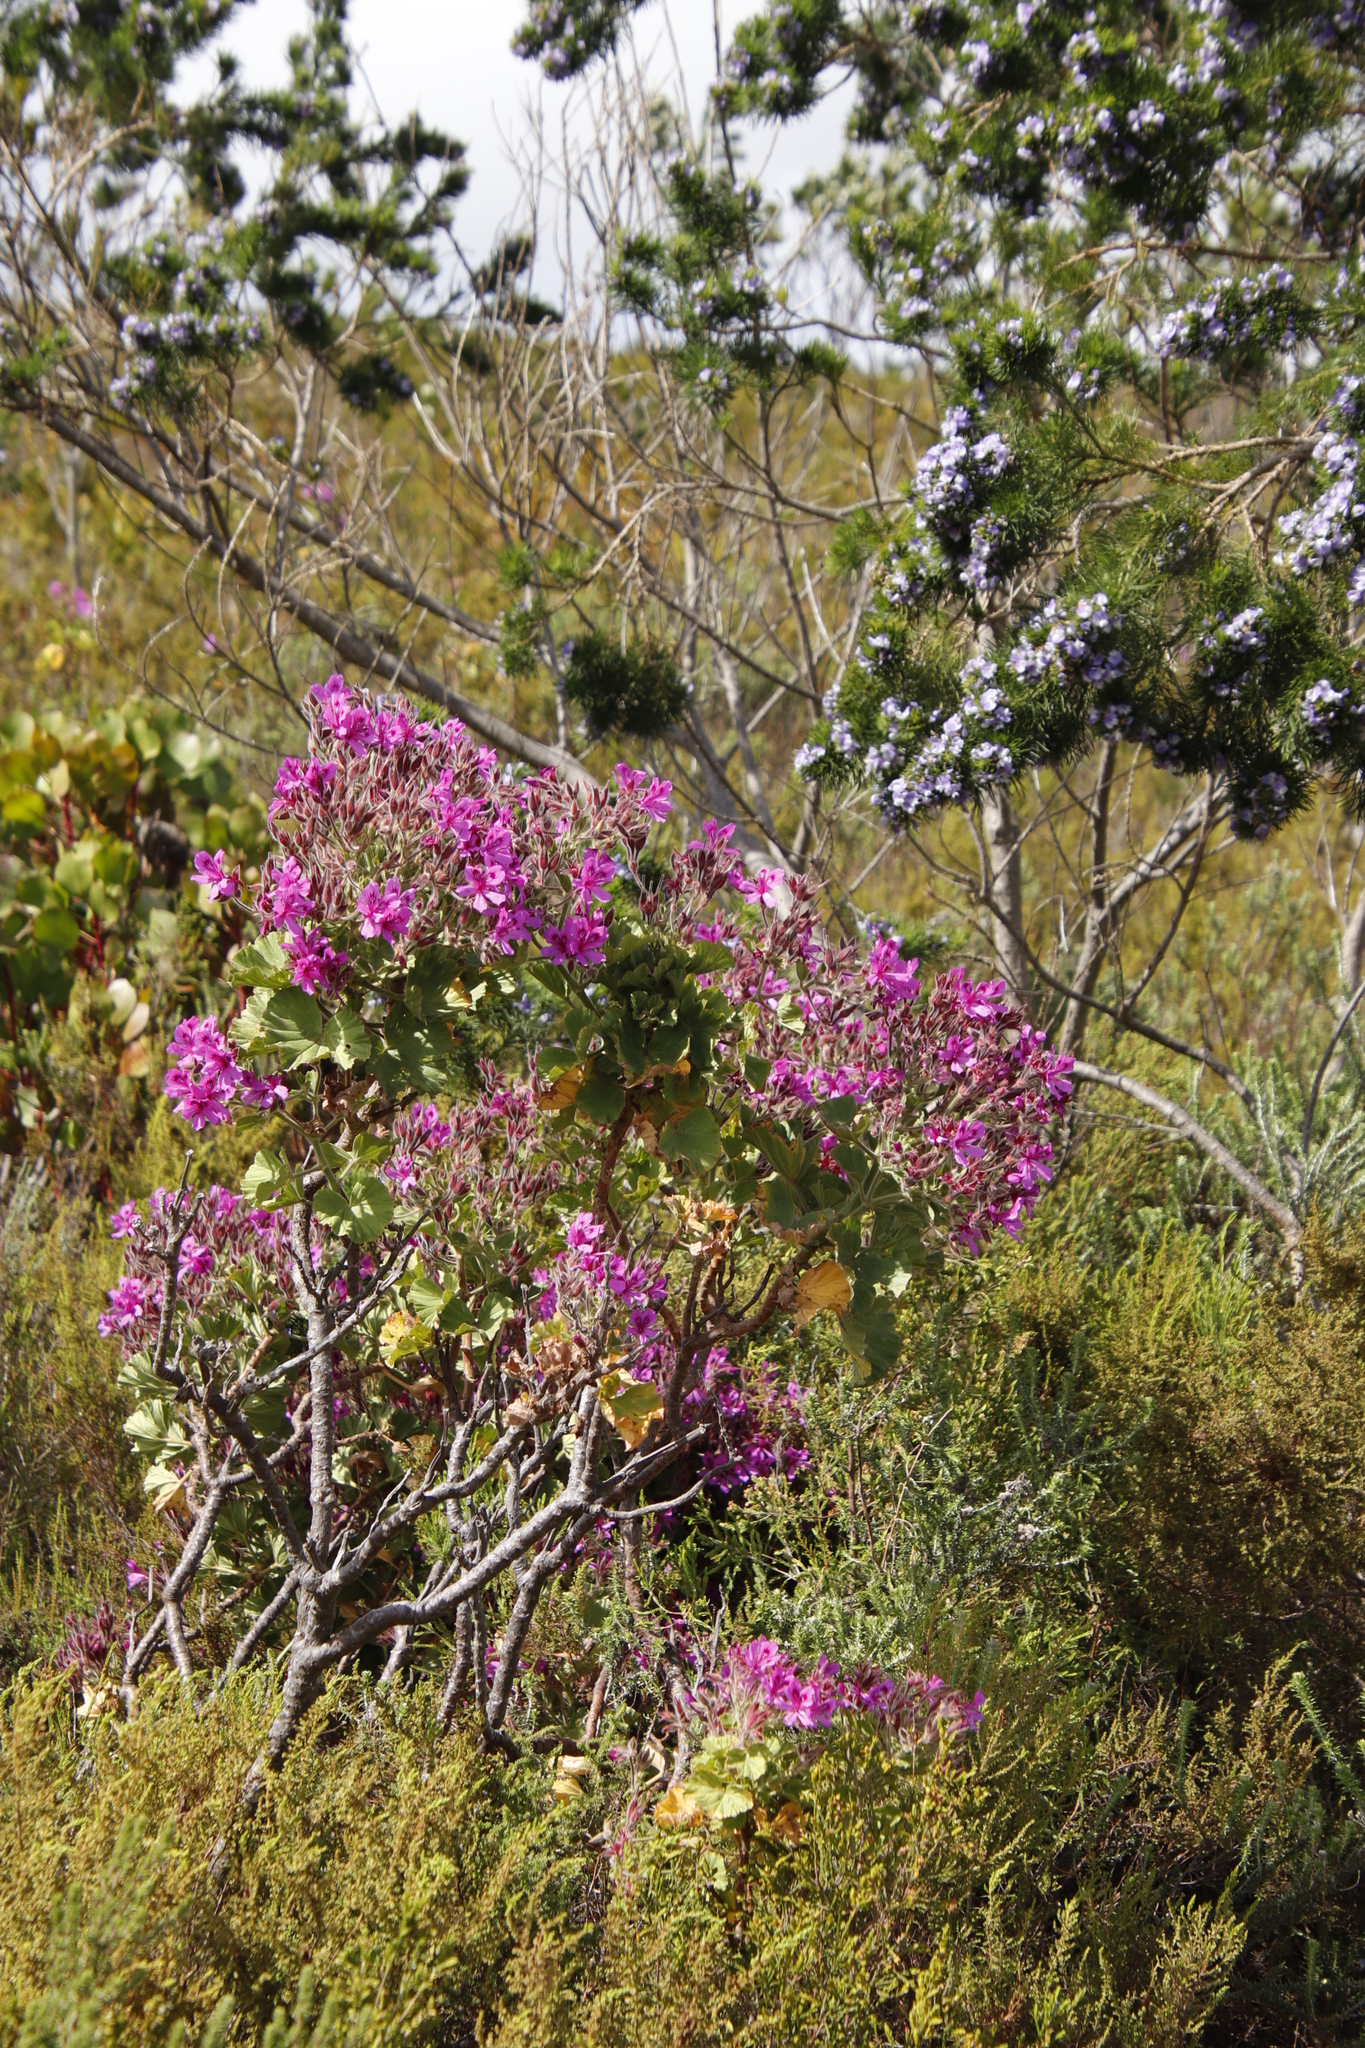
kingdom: Plantae
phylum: Tracheophyta
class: Magnoliopsida
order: Geraniales
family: Geraniaceae
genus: Pelargonium
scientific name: Pelargonium cucullatum
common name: Tree pelargonium
